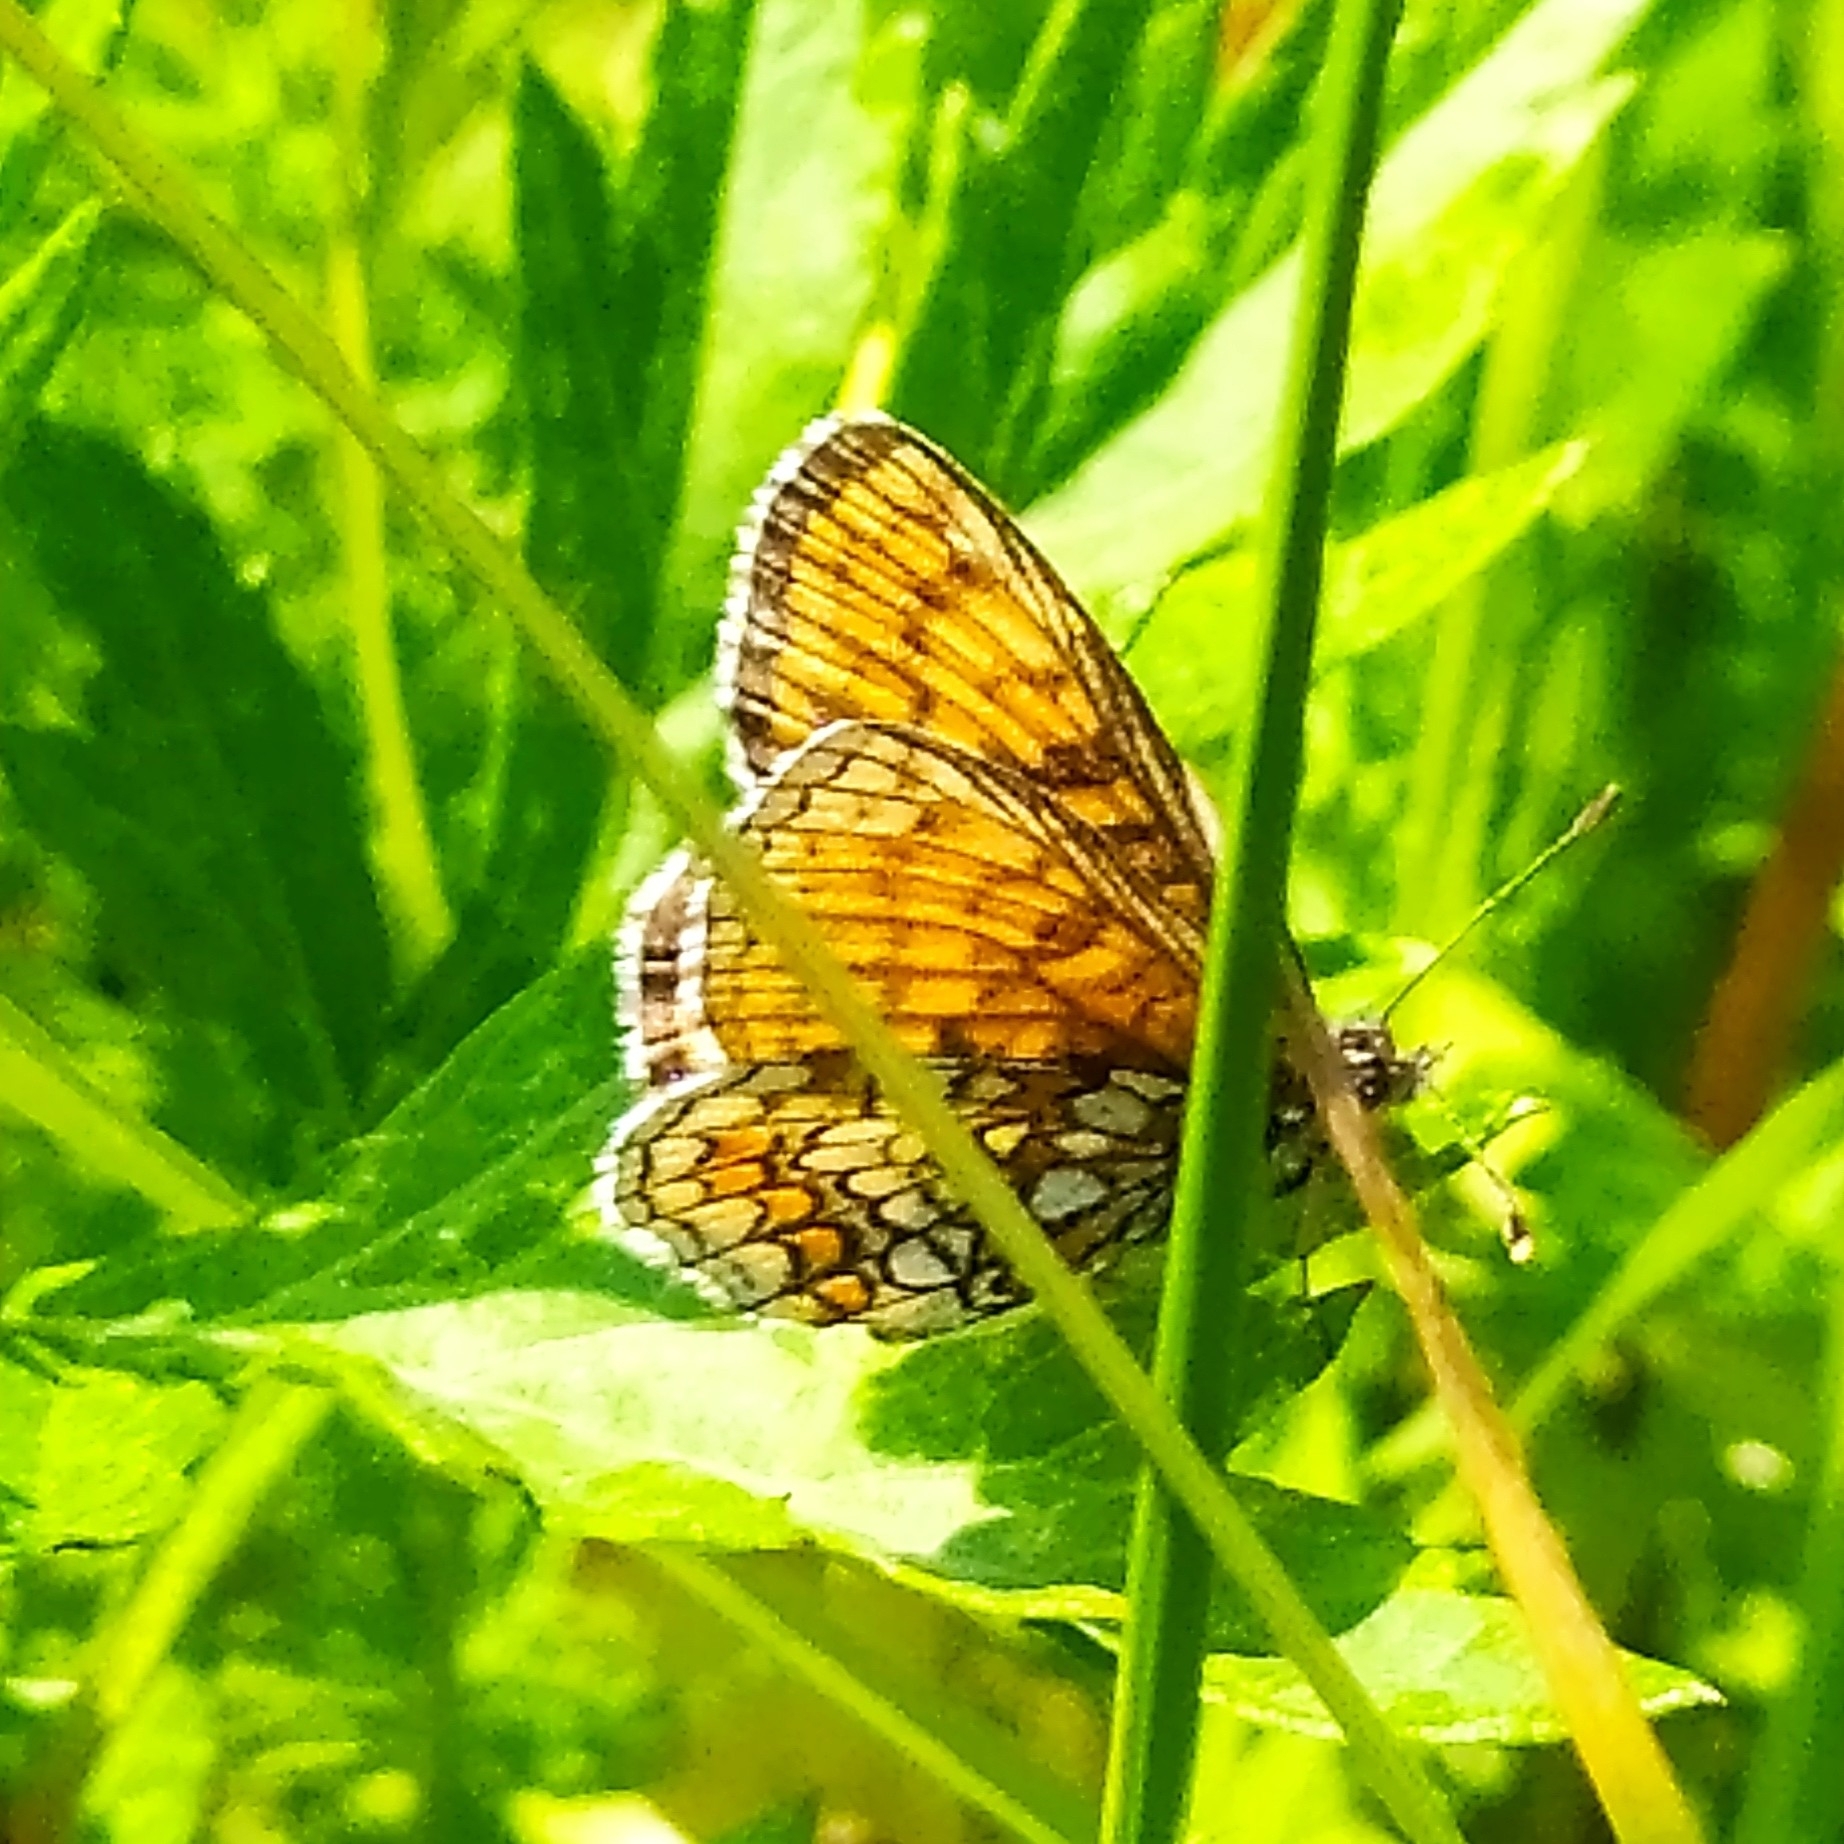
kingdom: Animalia
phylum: Arthropoda
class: Insecta
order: Lepidoptera
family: Nymphalidae
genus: Melitaea
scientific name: Melitaea athalia
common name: Heath fritillary
